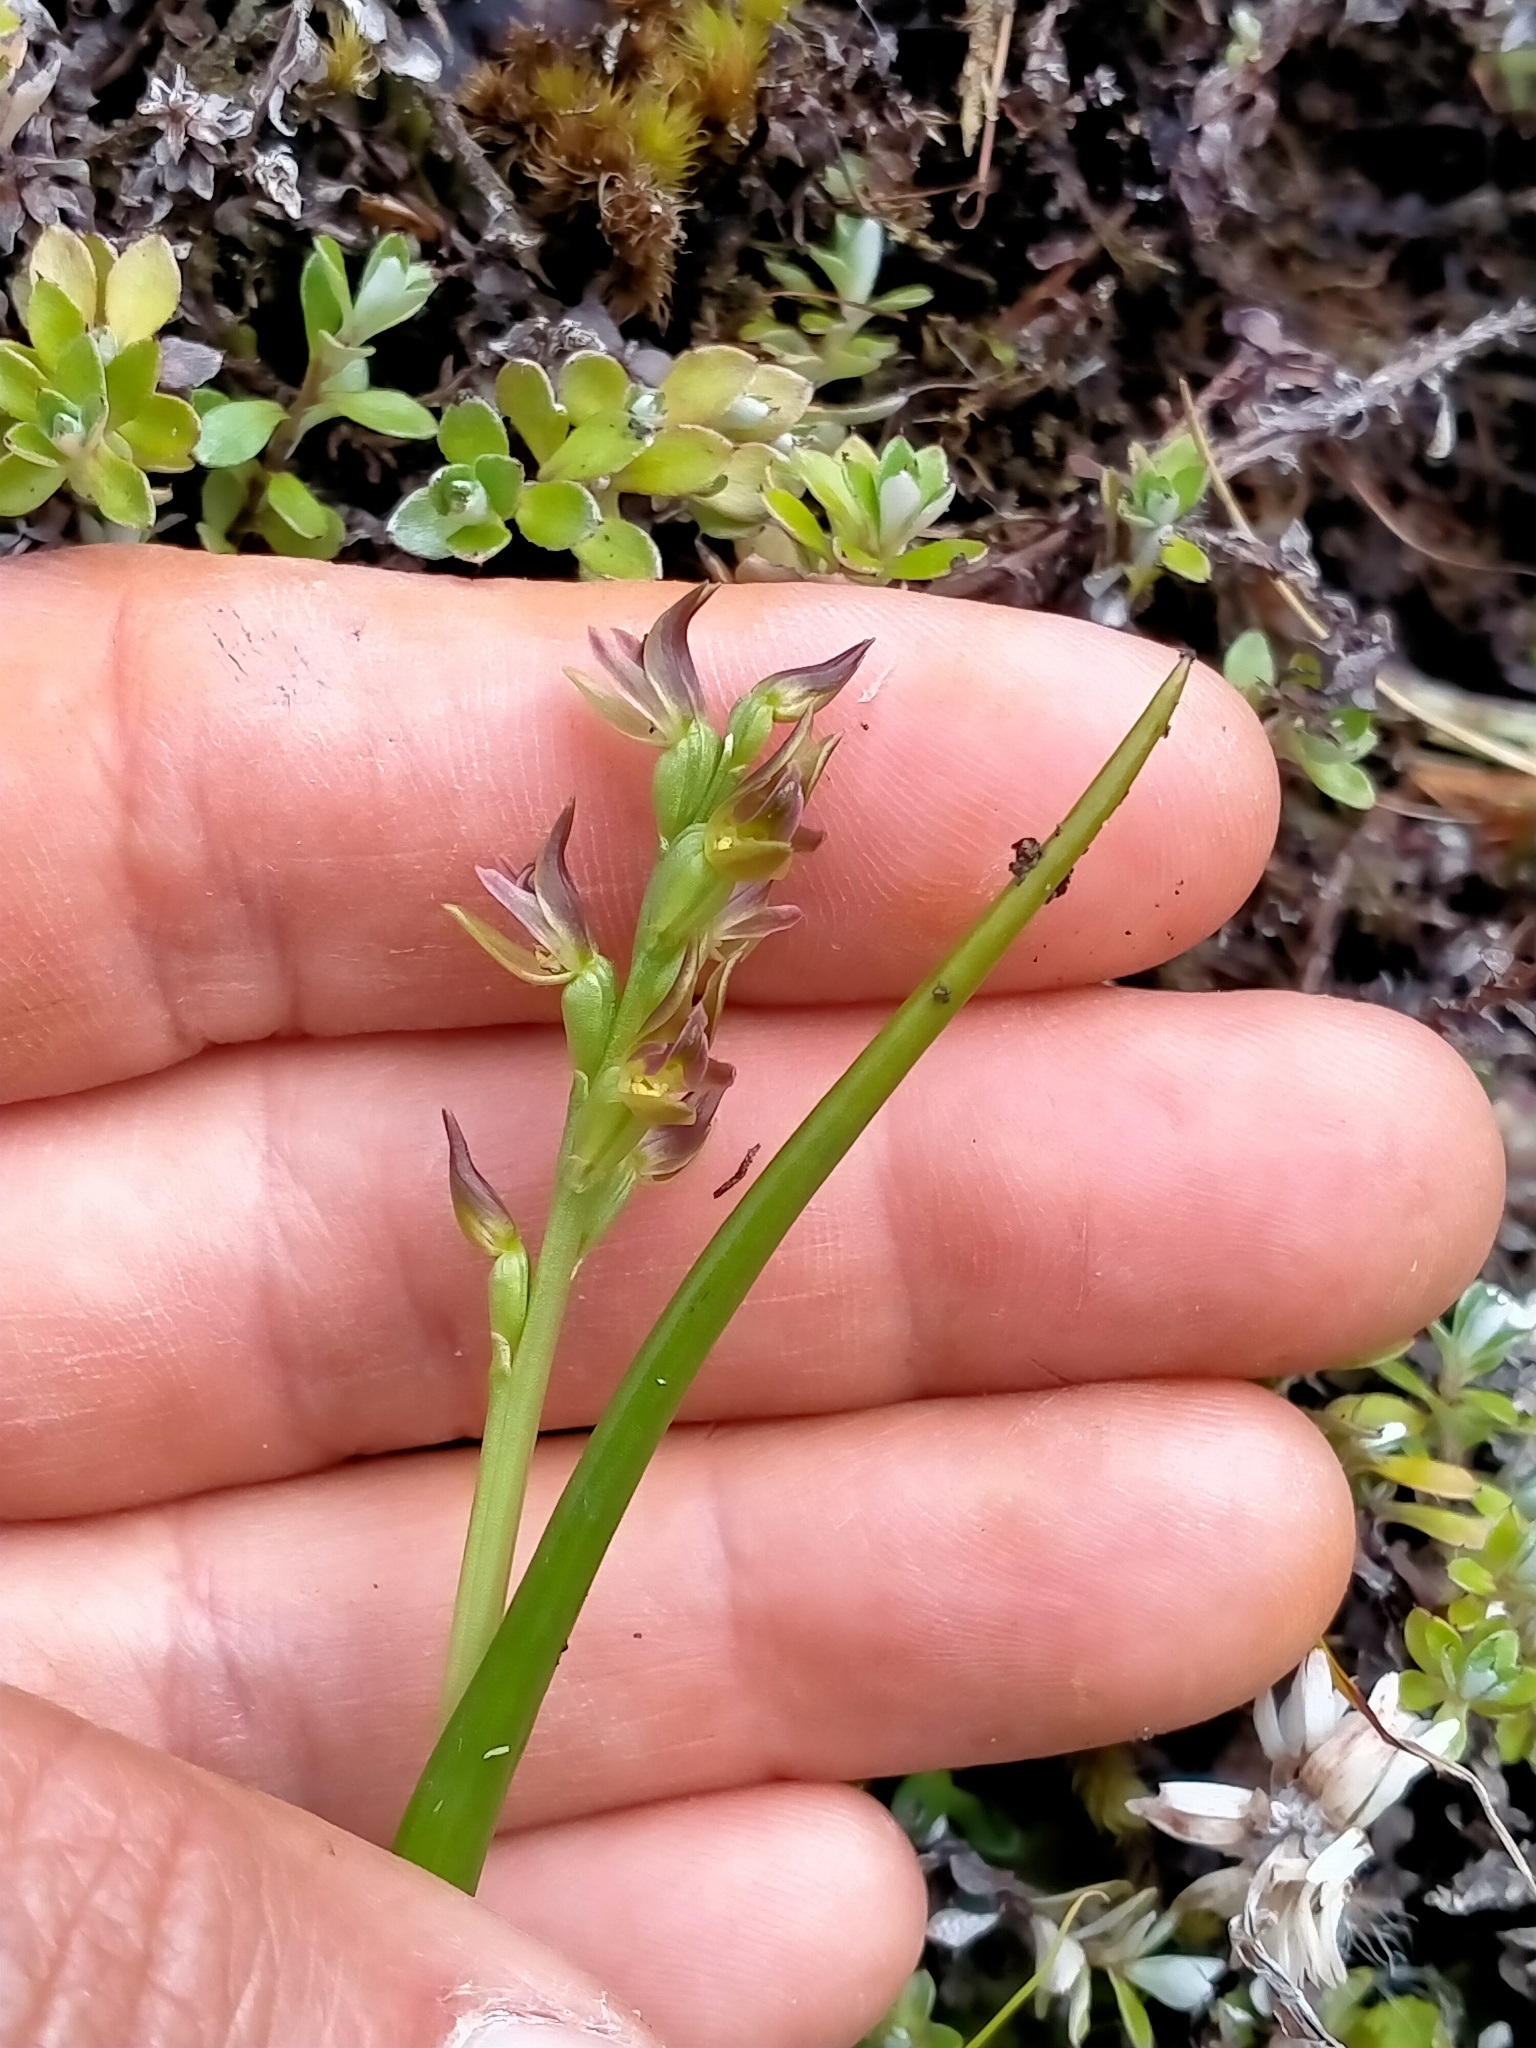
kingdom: Plantae
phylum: Tracheophyta
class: Liliopsida
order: Asparagales
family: Orchidaceae
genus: Prasophyllum
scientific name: Prasophyllum colensoi
